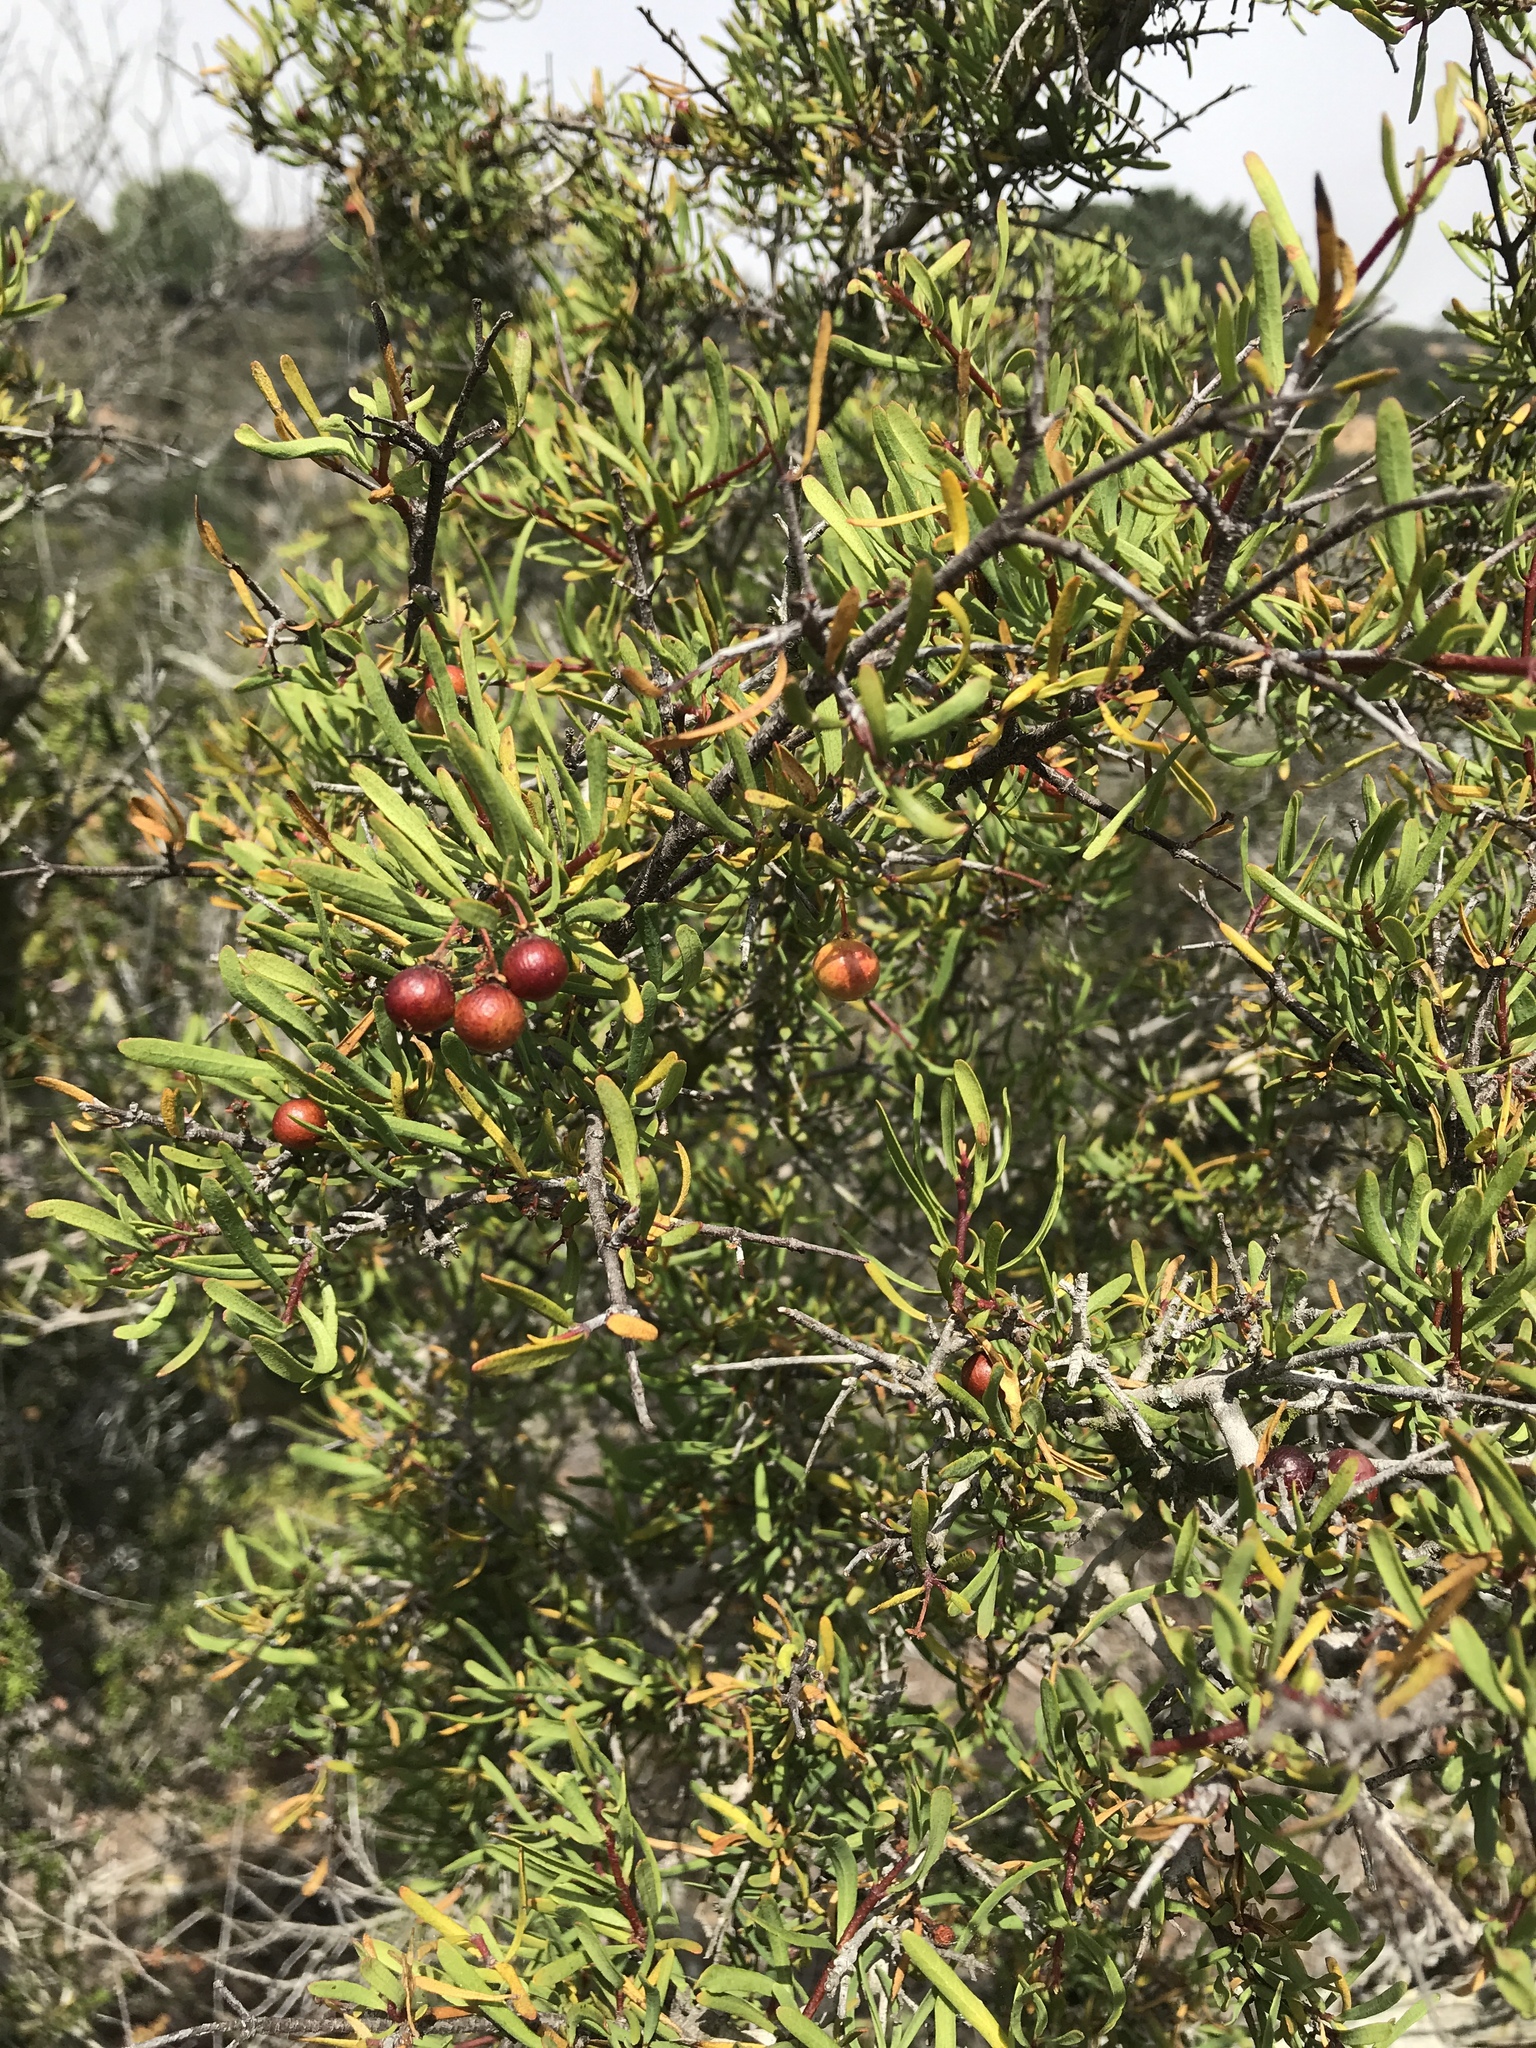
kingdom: Plantae
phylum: Tracheophyta
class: Magnoliopsida
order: Sapindales
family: Rutaceae
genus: Cneoridium
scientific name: Cneoridium dumosum
